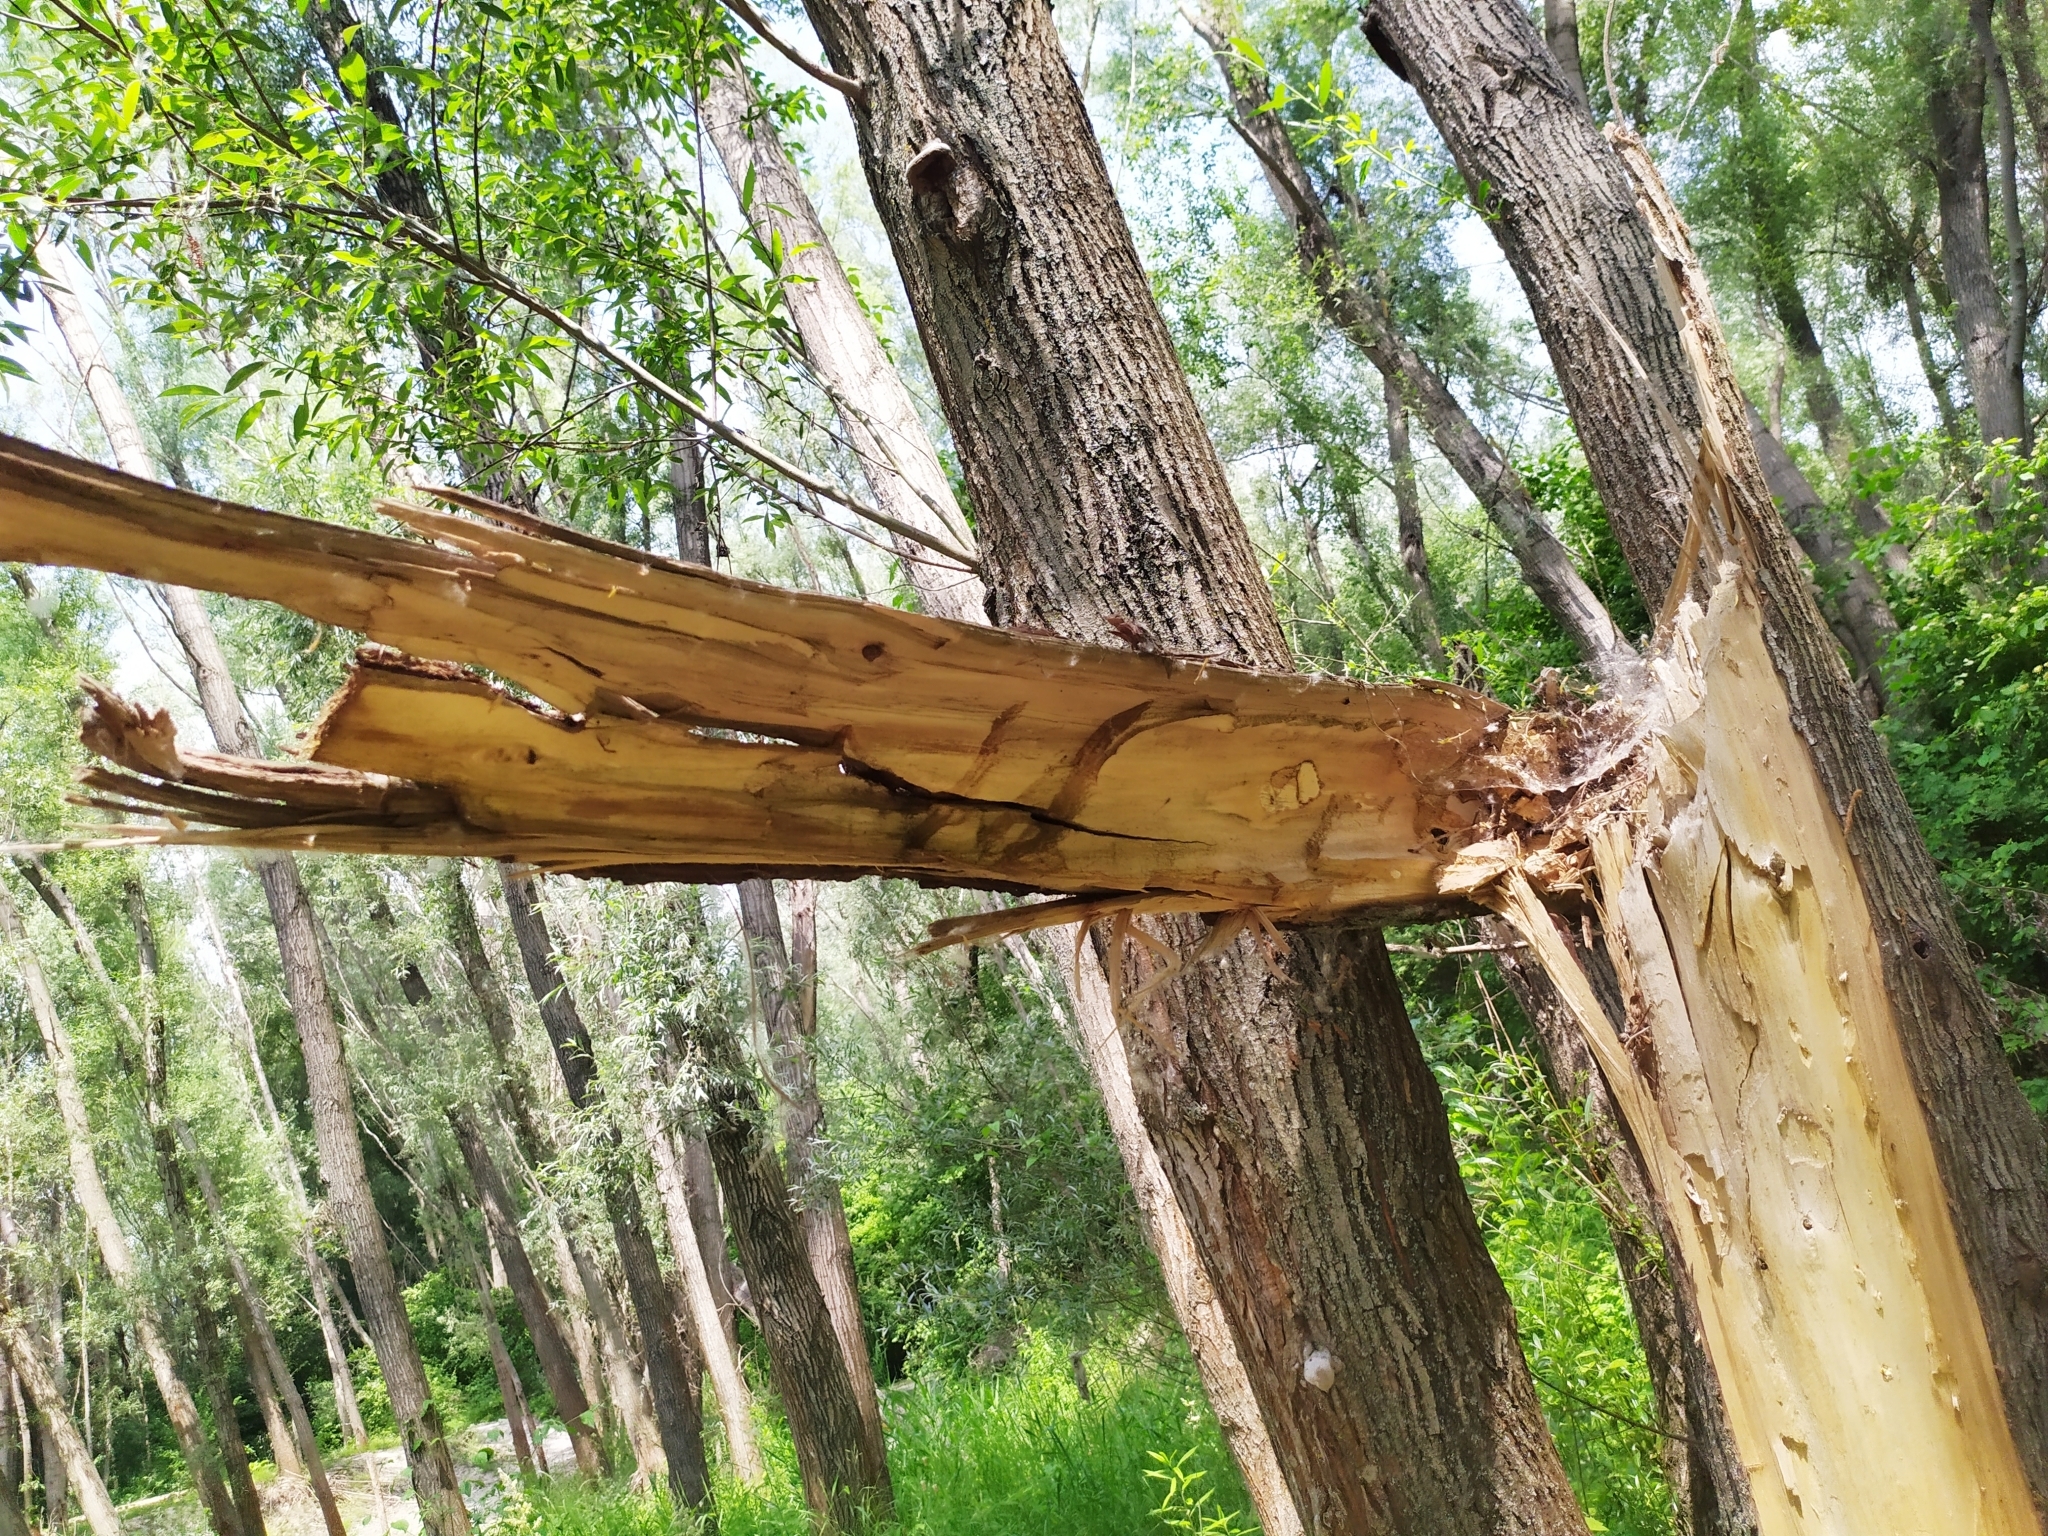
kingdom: Animalia
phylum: Arthropoda
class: Insecta
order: Coleoptera
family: Cerambycidae
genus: Mesosa
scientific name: Mesosa curculionoides
